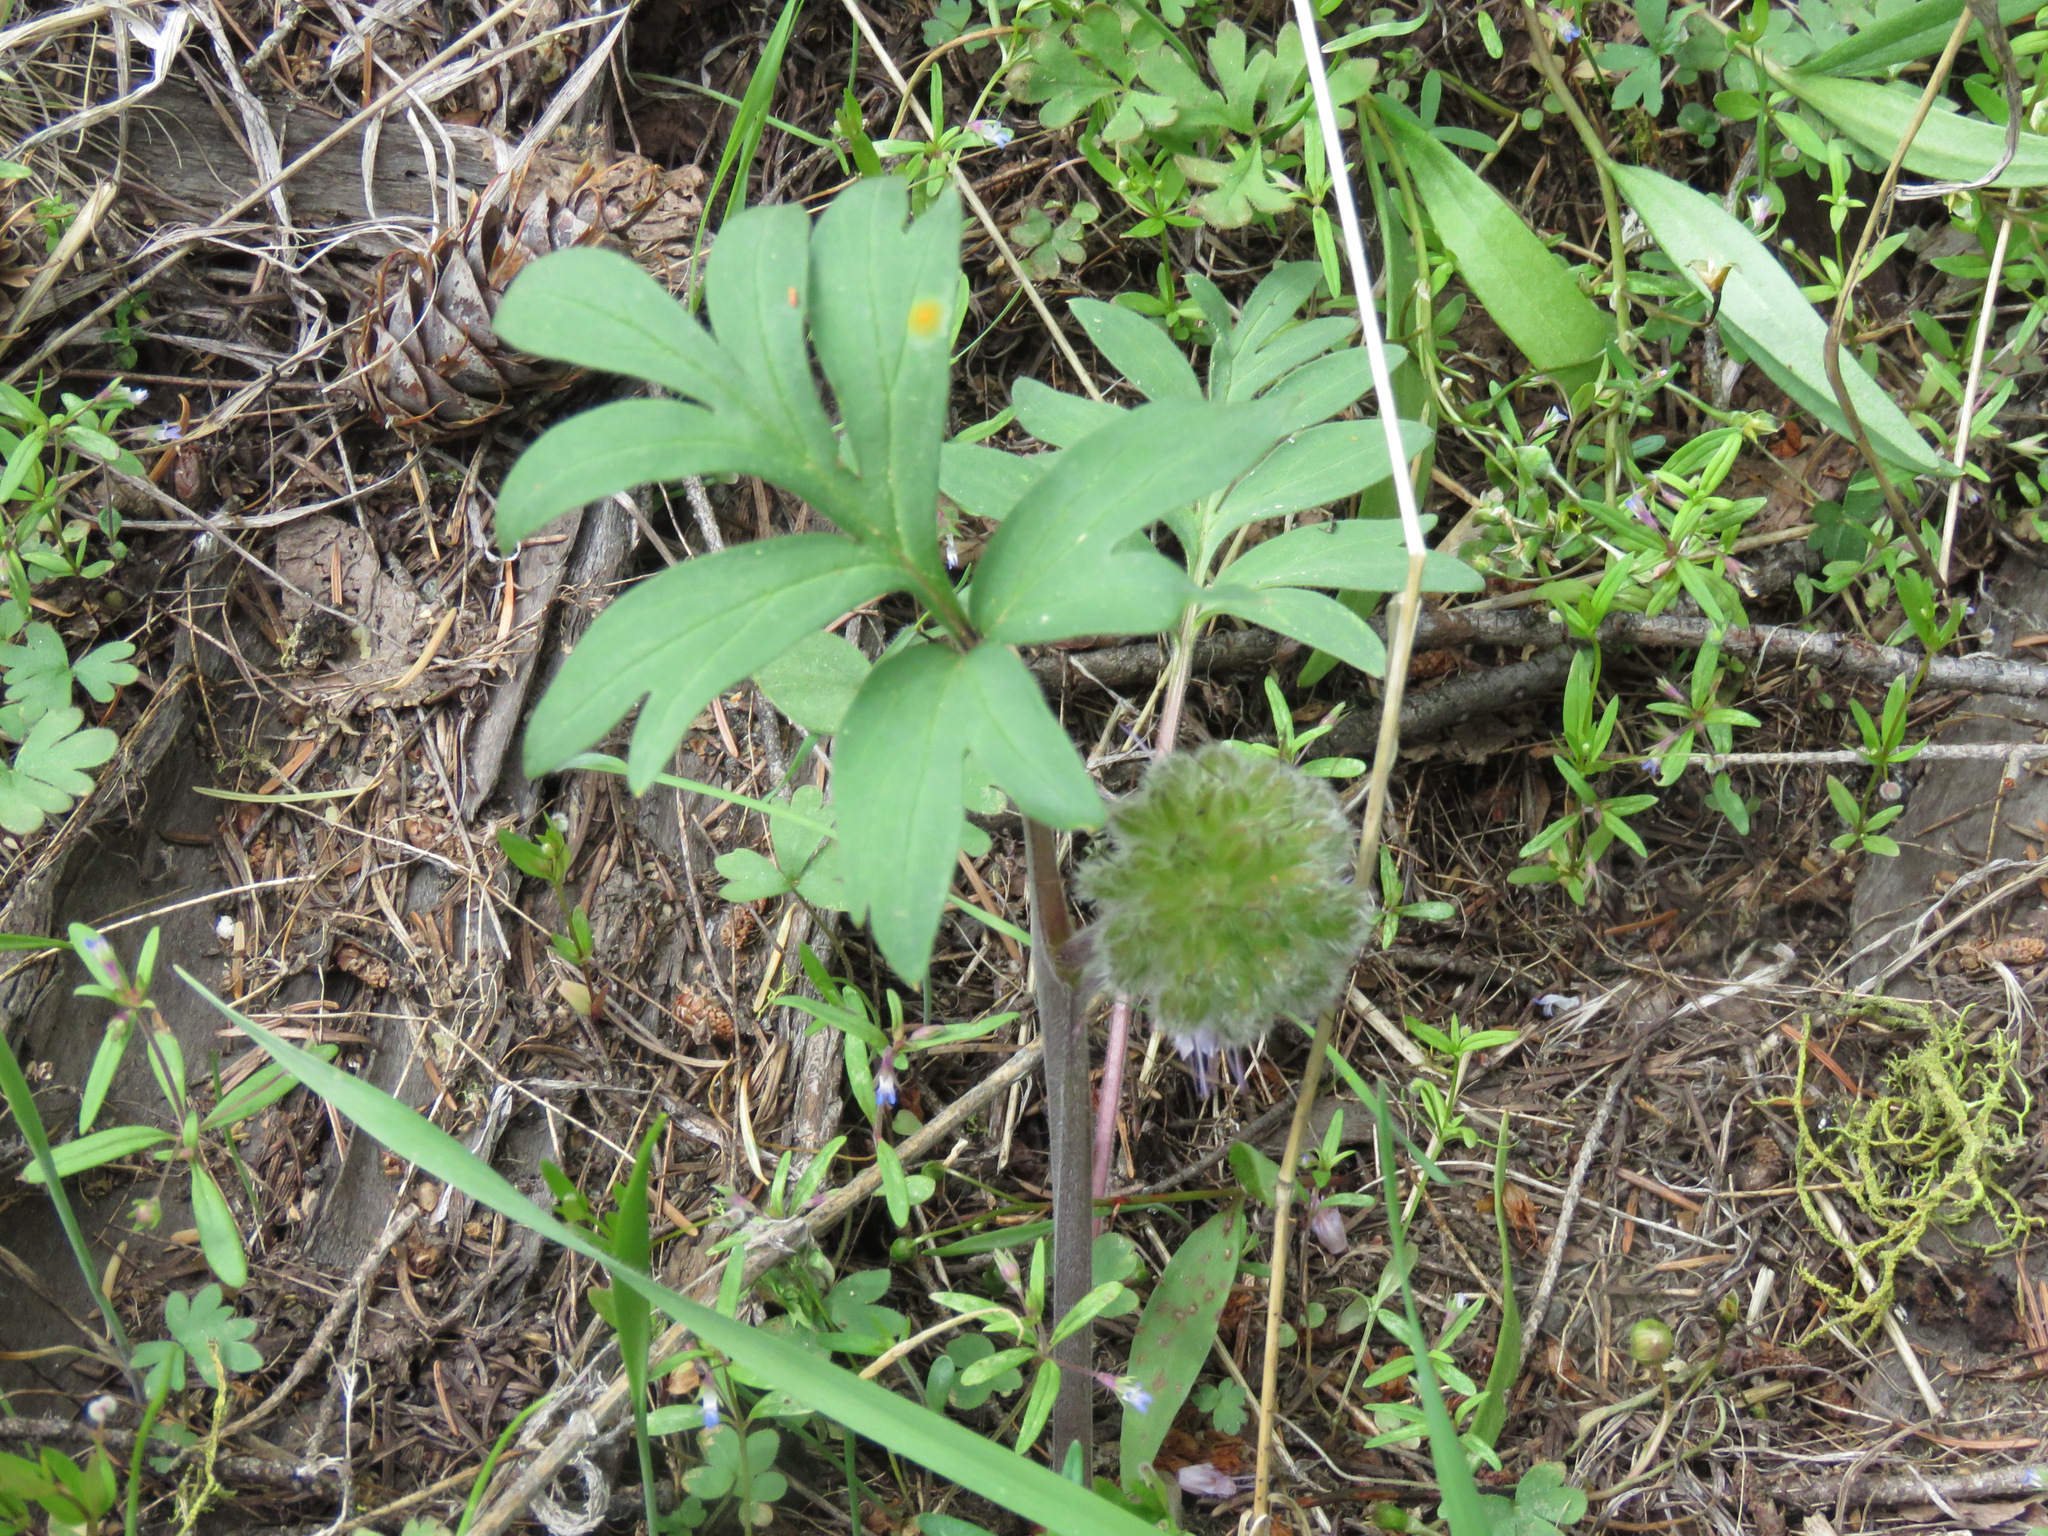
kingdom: Plantae
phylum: Tracheophyta
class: Magnoliopsida
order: Boraginales
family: Hydrophyllaceae
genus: Hydrophyllum
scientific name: Hydrophyllum capitatum
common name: Woollen-breeches
